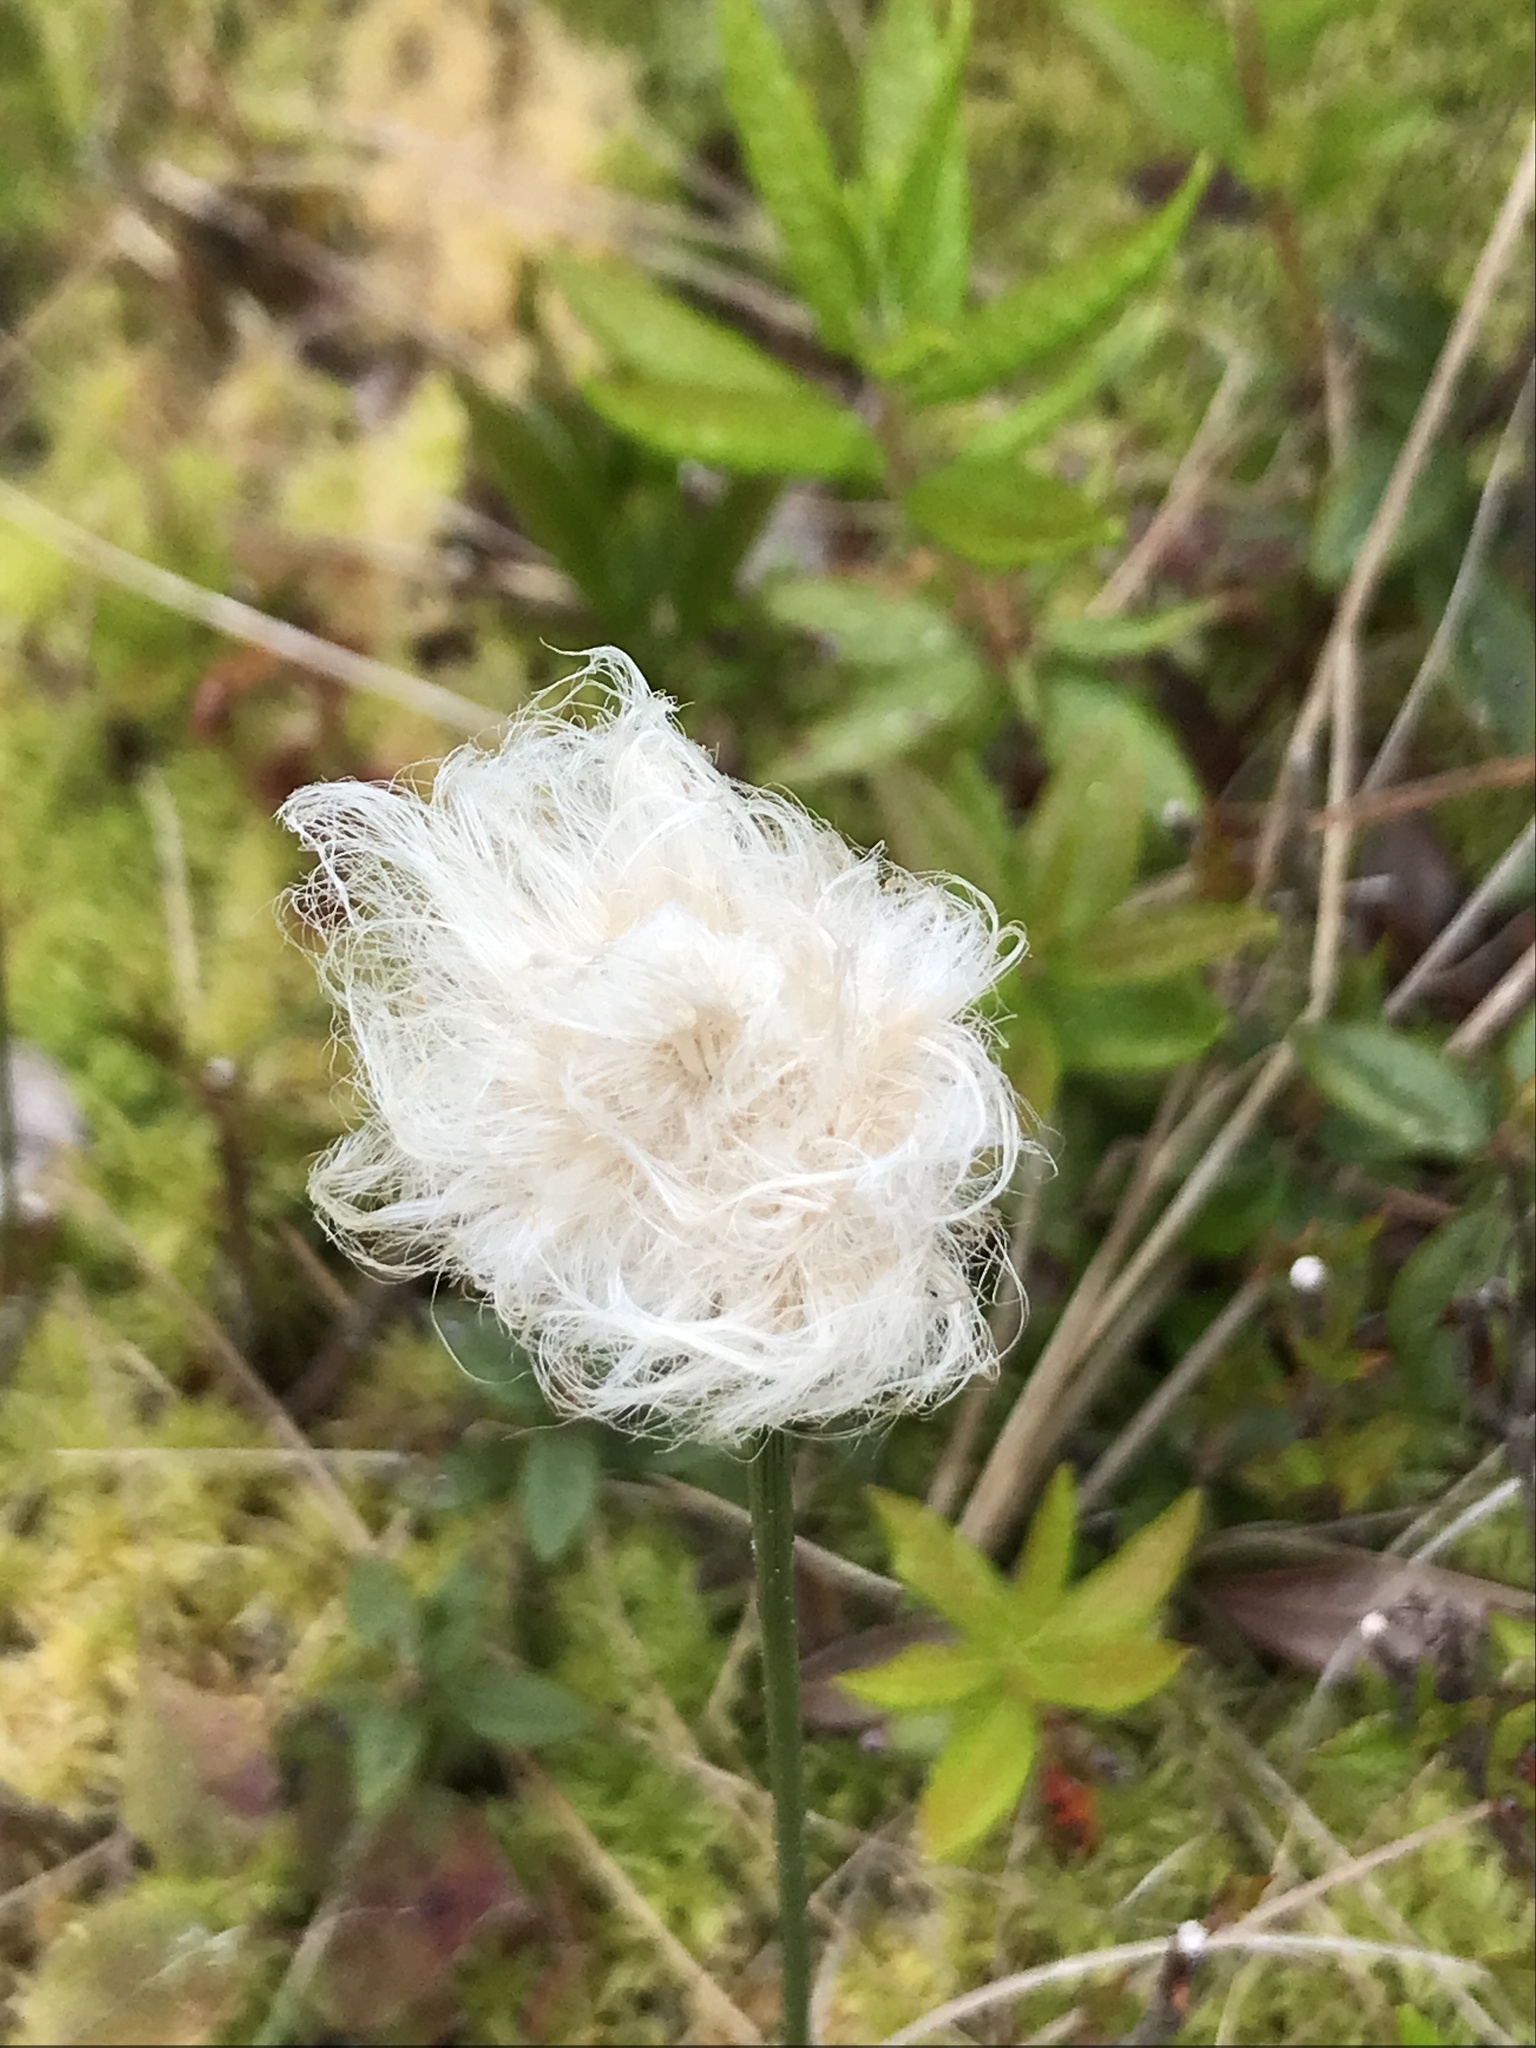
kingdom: Plantae
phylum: Tracheophyta
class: Liliopsida
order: Poales
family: Cyperaceae
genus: Eriophorum
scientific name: Eriophorum chamissonis
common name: Chamisso's cottongrass
